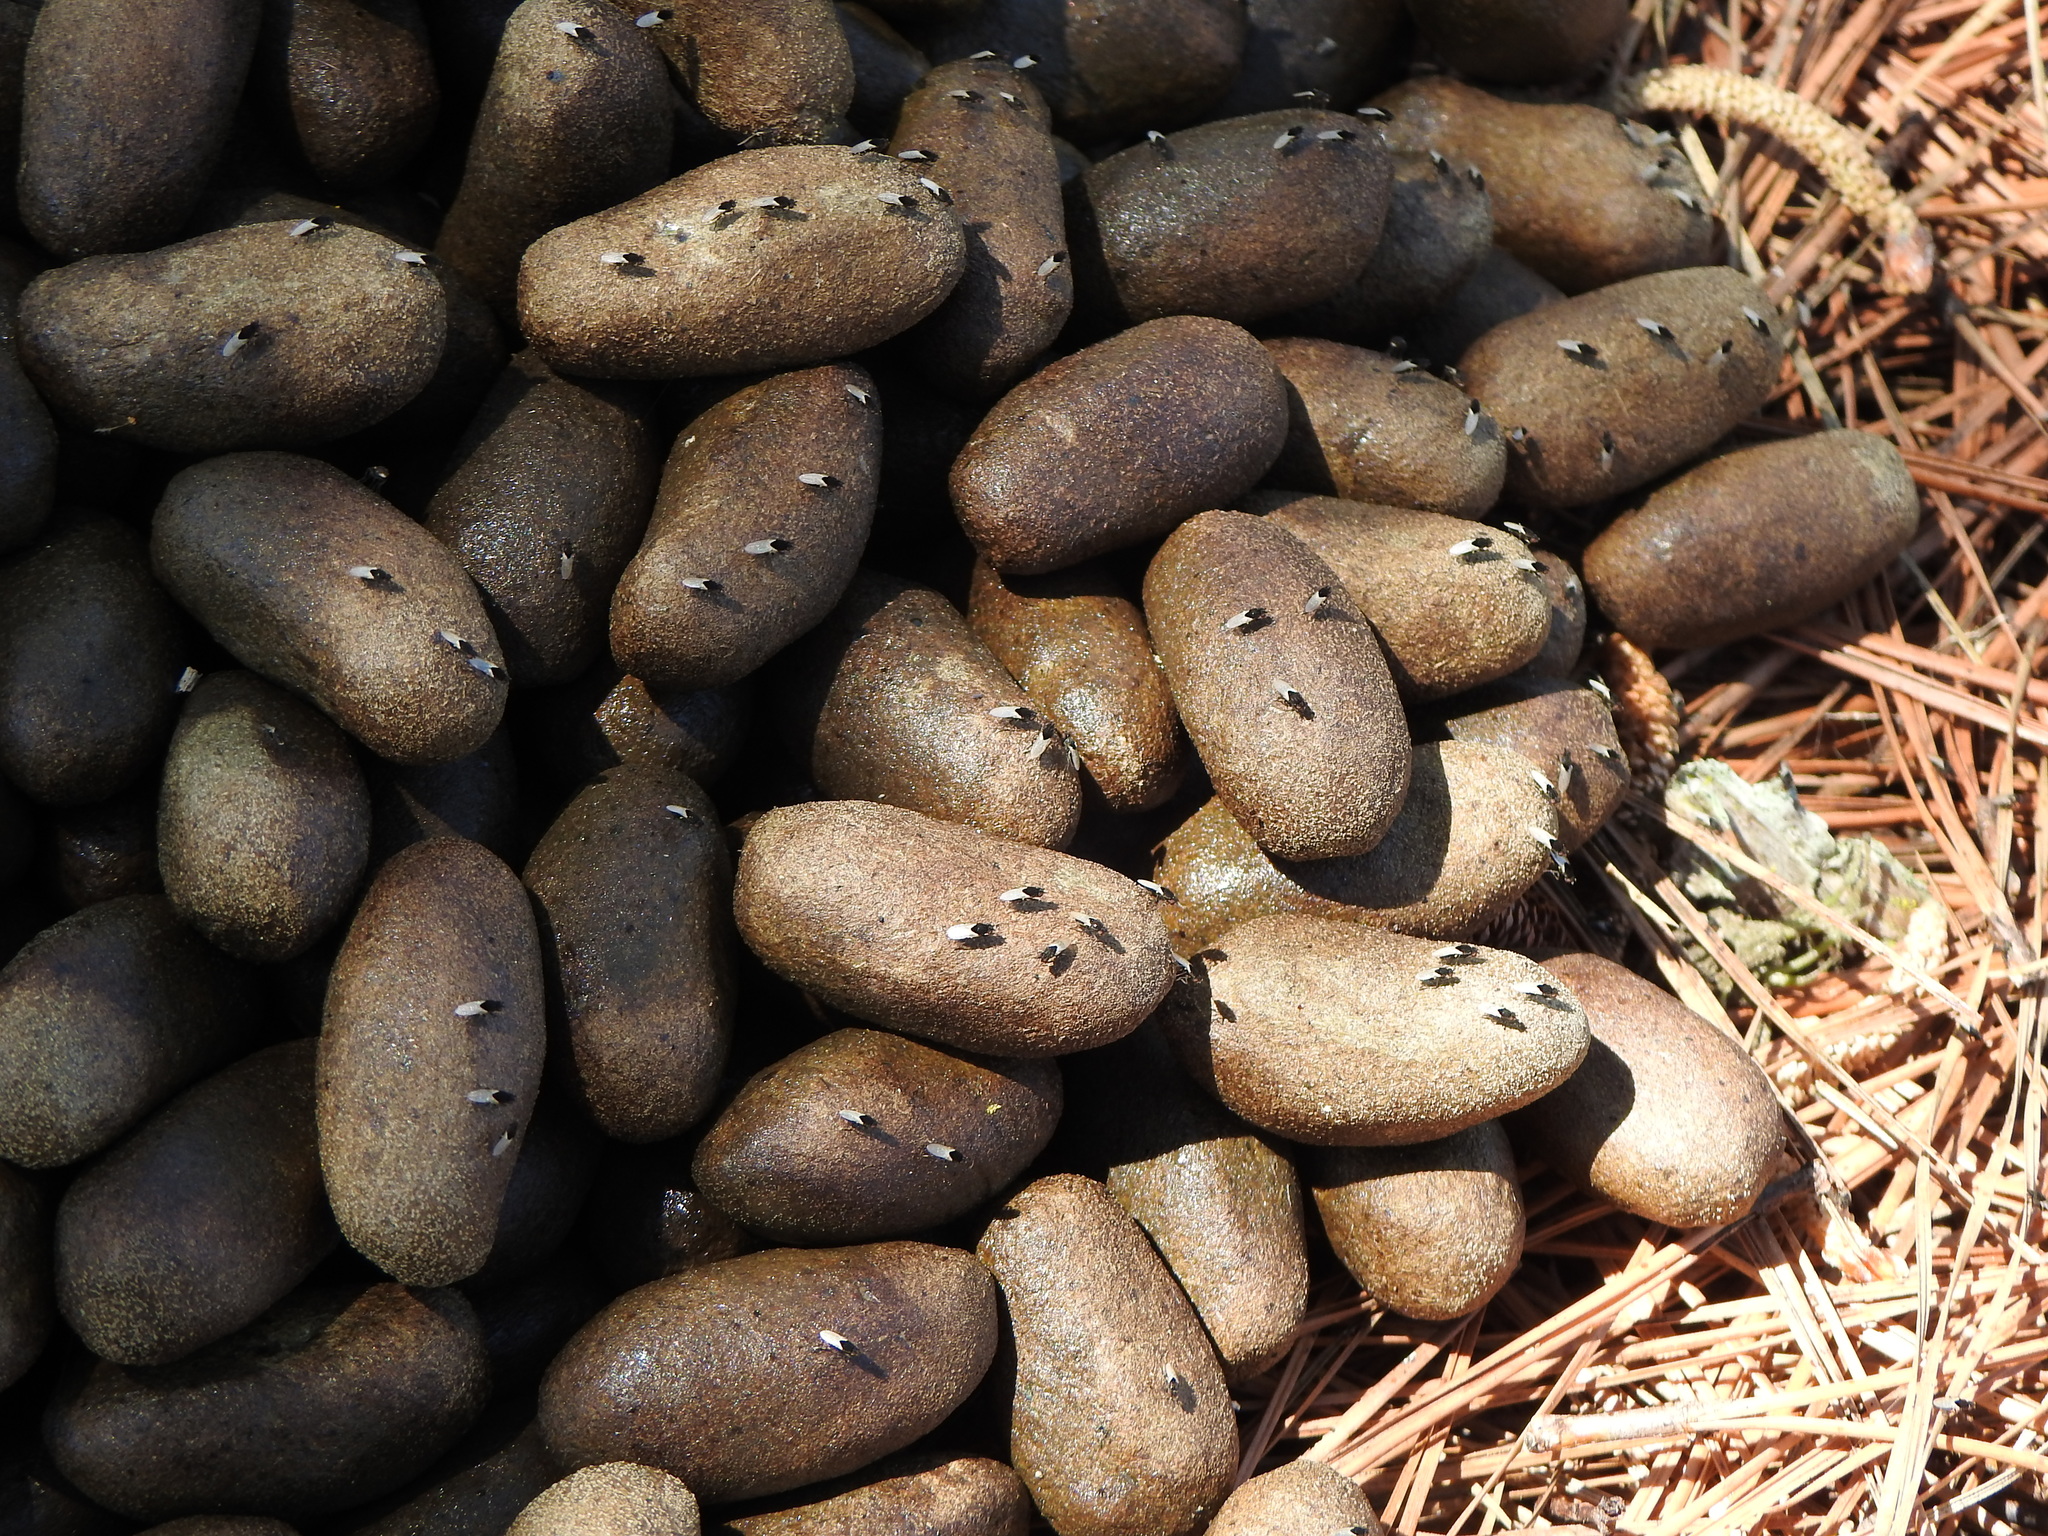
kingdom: Animalia
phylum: Chordata
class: Mammalia
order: Rodentia
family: Caviidae
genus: Hydrochoerus
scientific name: Hydrochoerus hydrochaeris
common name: Capybara
